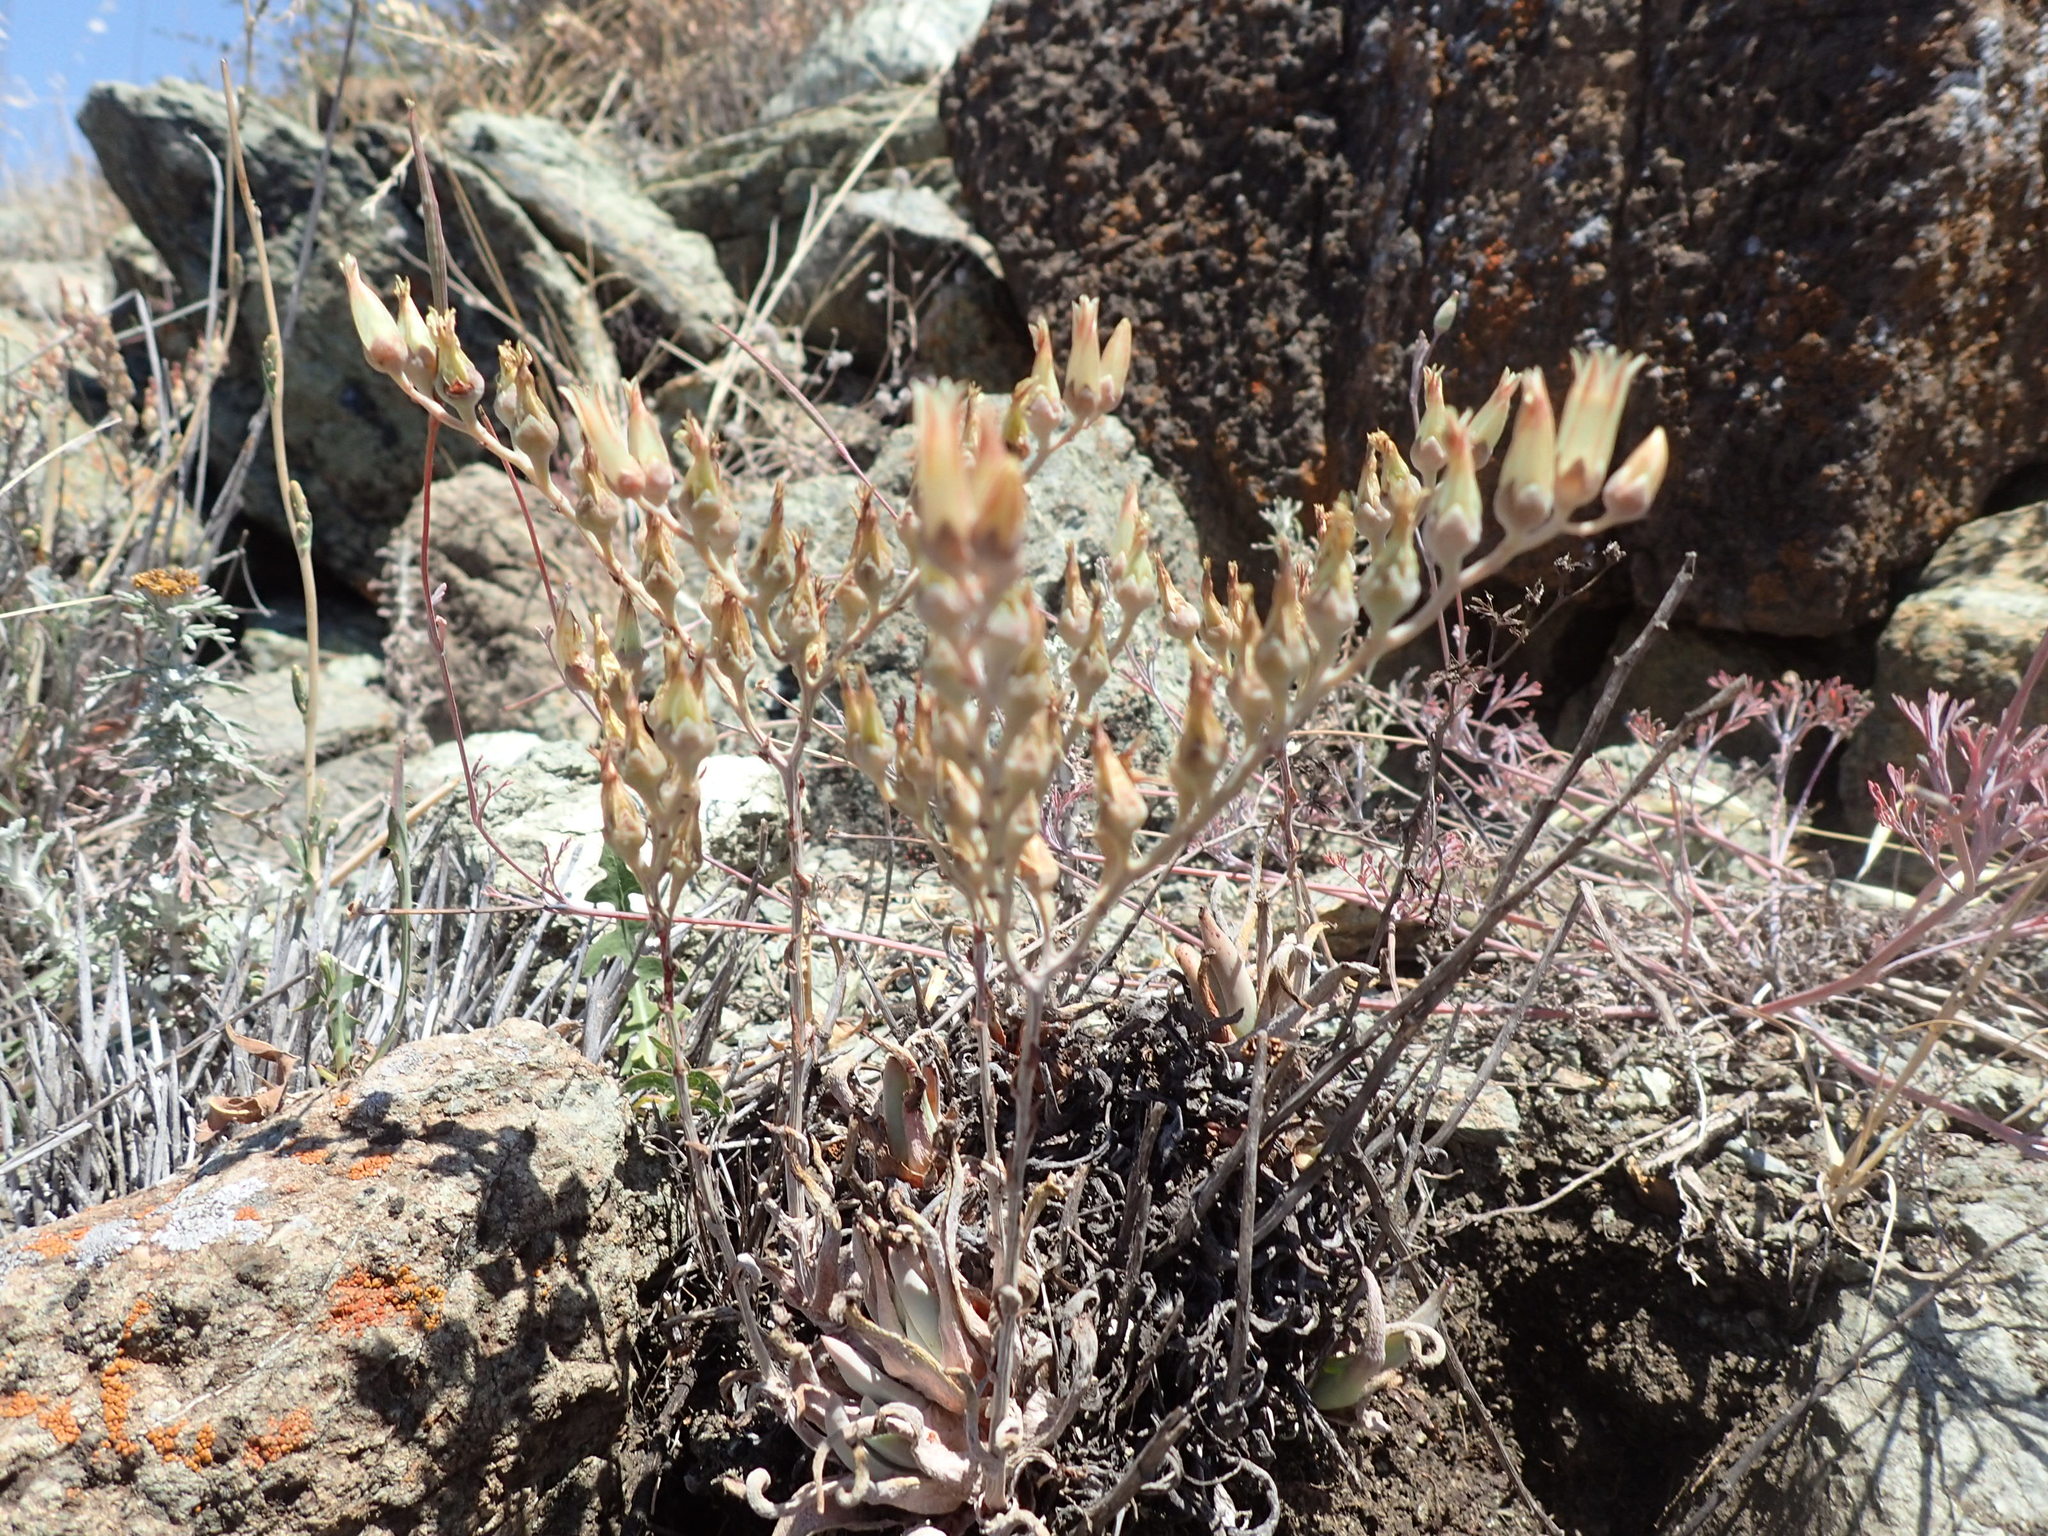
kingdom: Plantae
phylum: Tracheophyta
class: Magnoliopsida
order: Saxifragales
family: Crassulaceae
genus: Dudleya
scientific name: Dudleya abramsii
